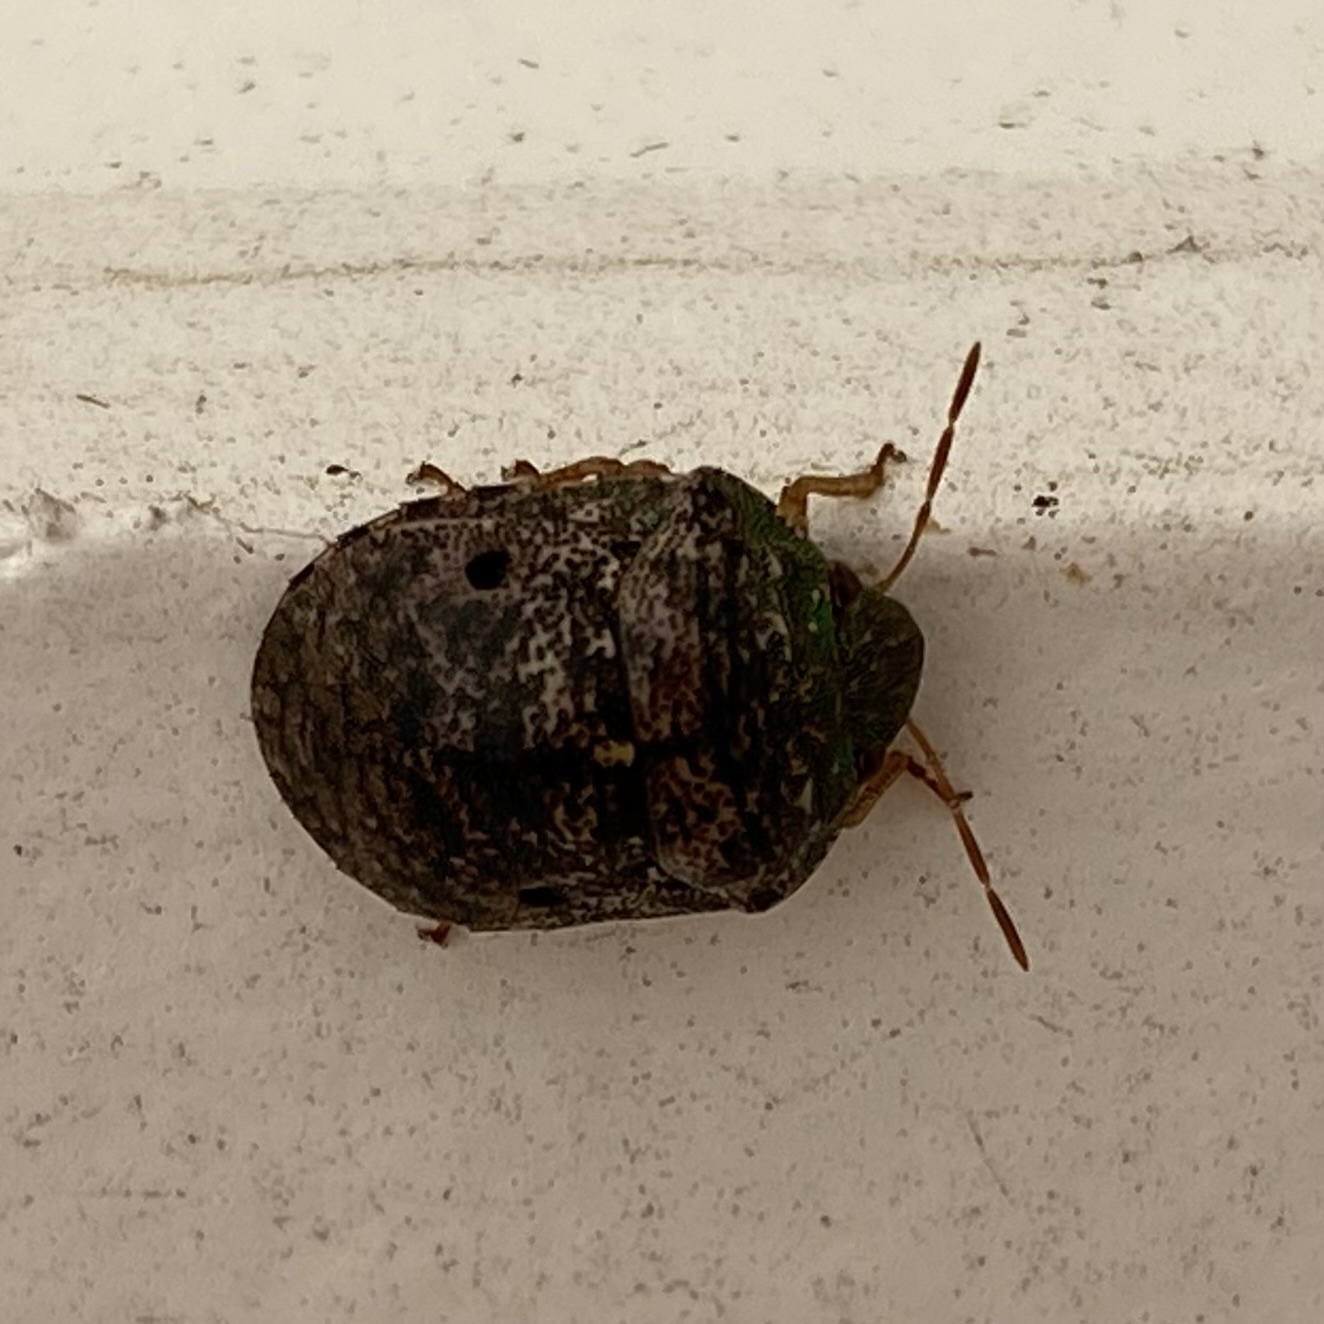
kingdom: Animalia
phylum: Arthropoda
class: Insecta
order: Hemiptera
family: Scutelleridae
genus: Diolcus
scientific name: Diolcus chrysorrhoeus
